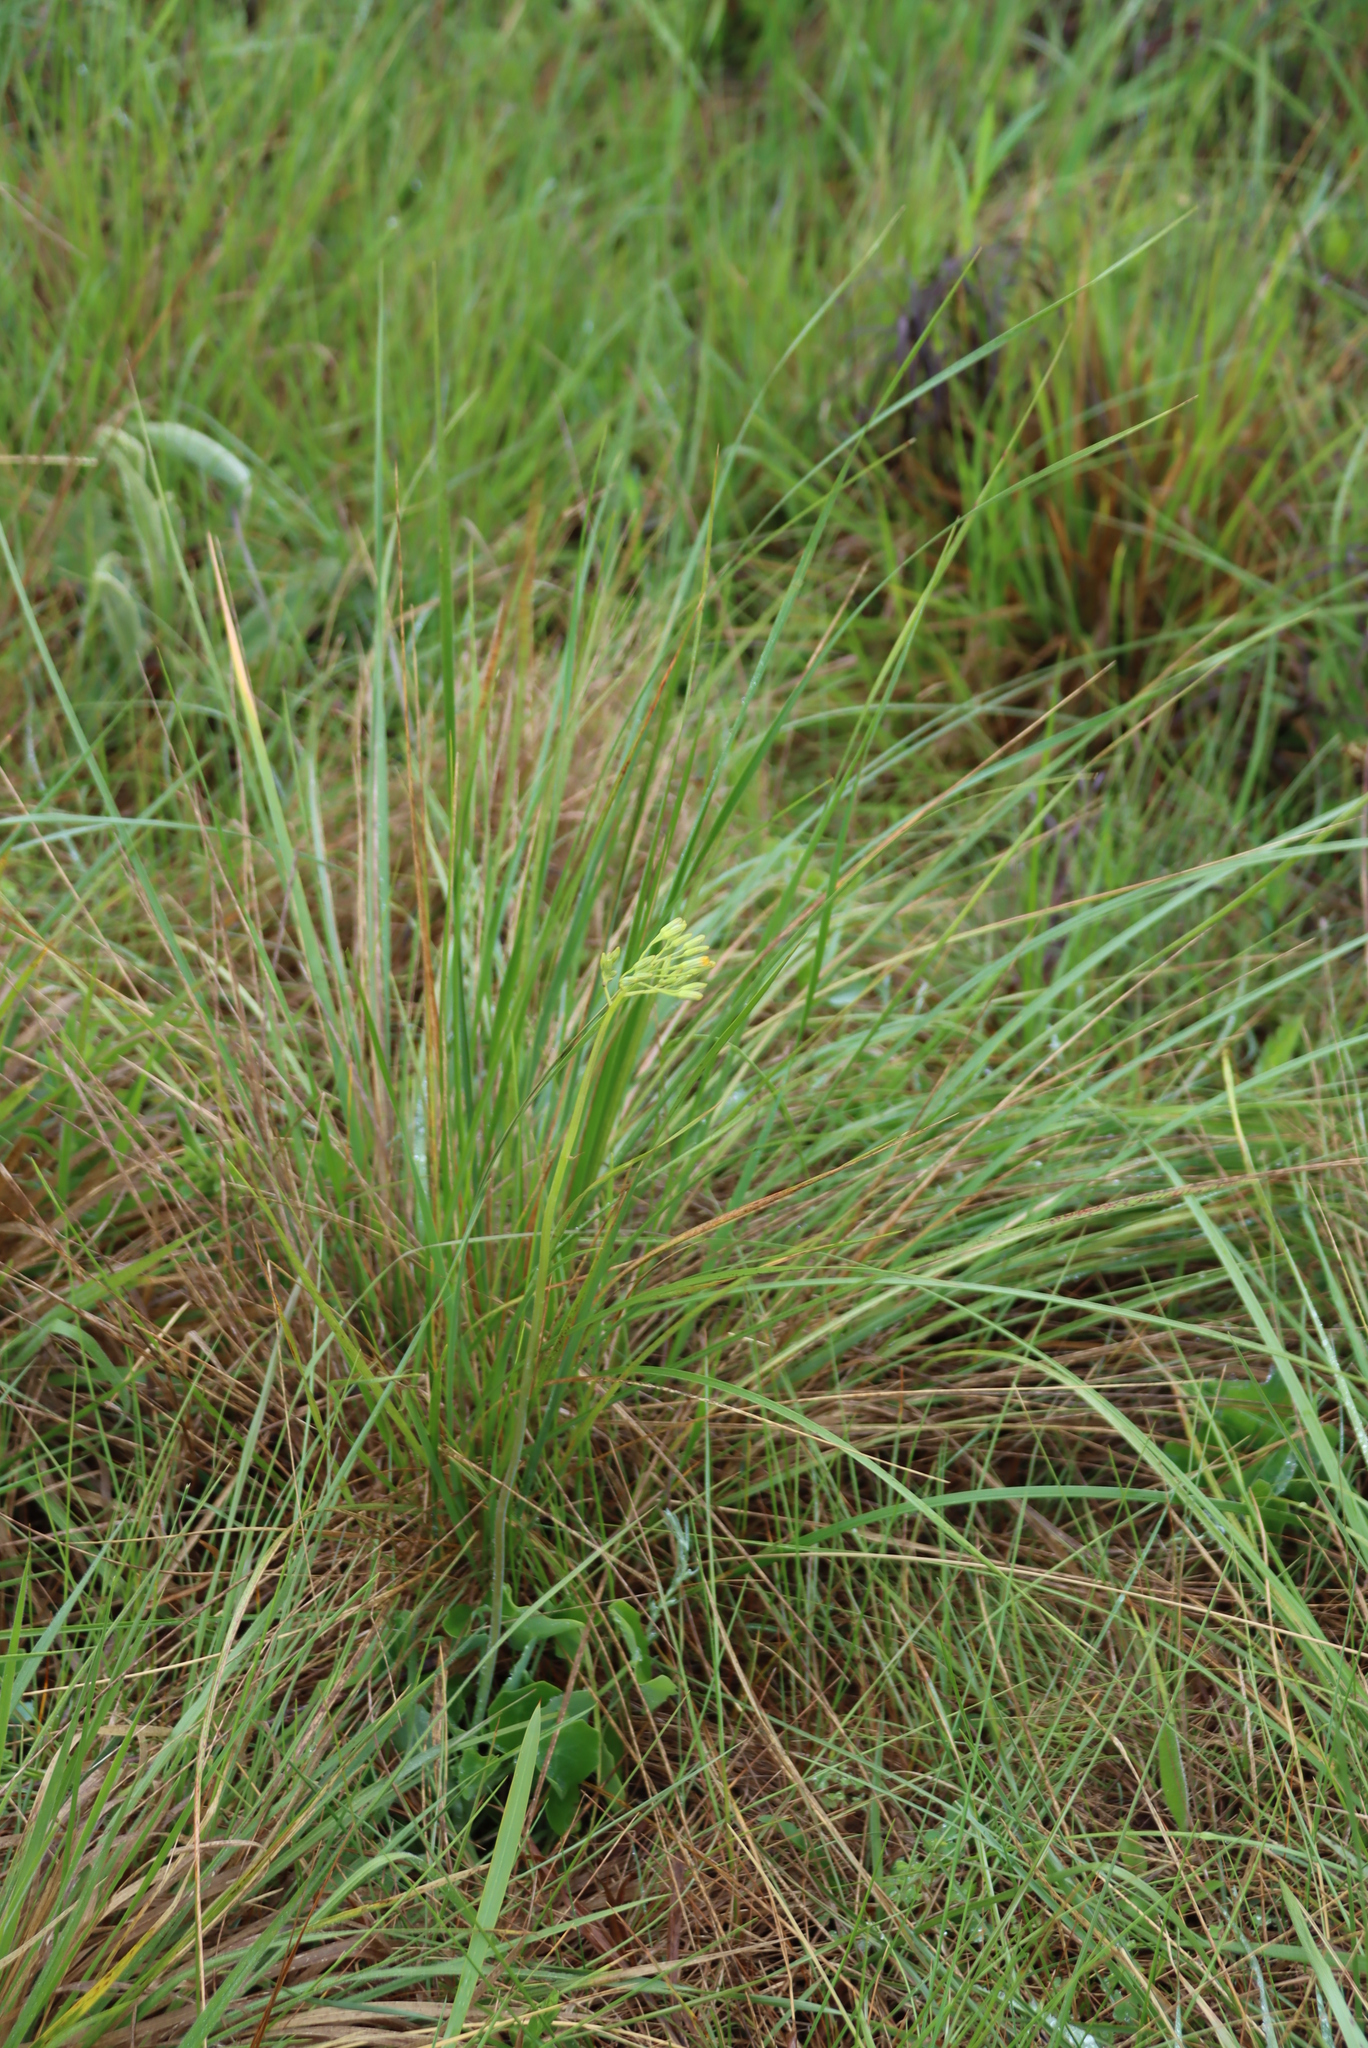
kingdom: Plantae
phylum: Tracheophyta
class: Magnoliopsida
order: Asterales
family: Asteraceae
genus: Senecio
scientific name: Senecio oxyriifolius
